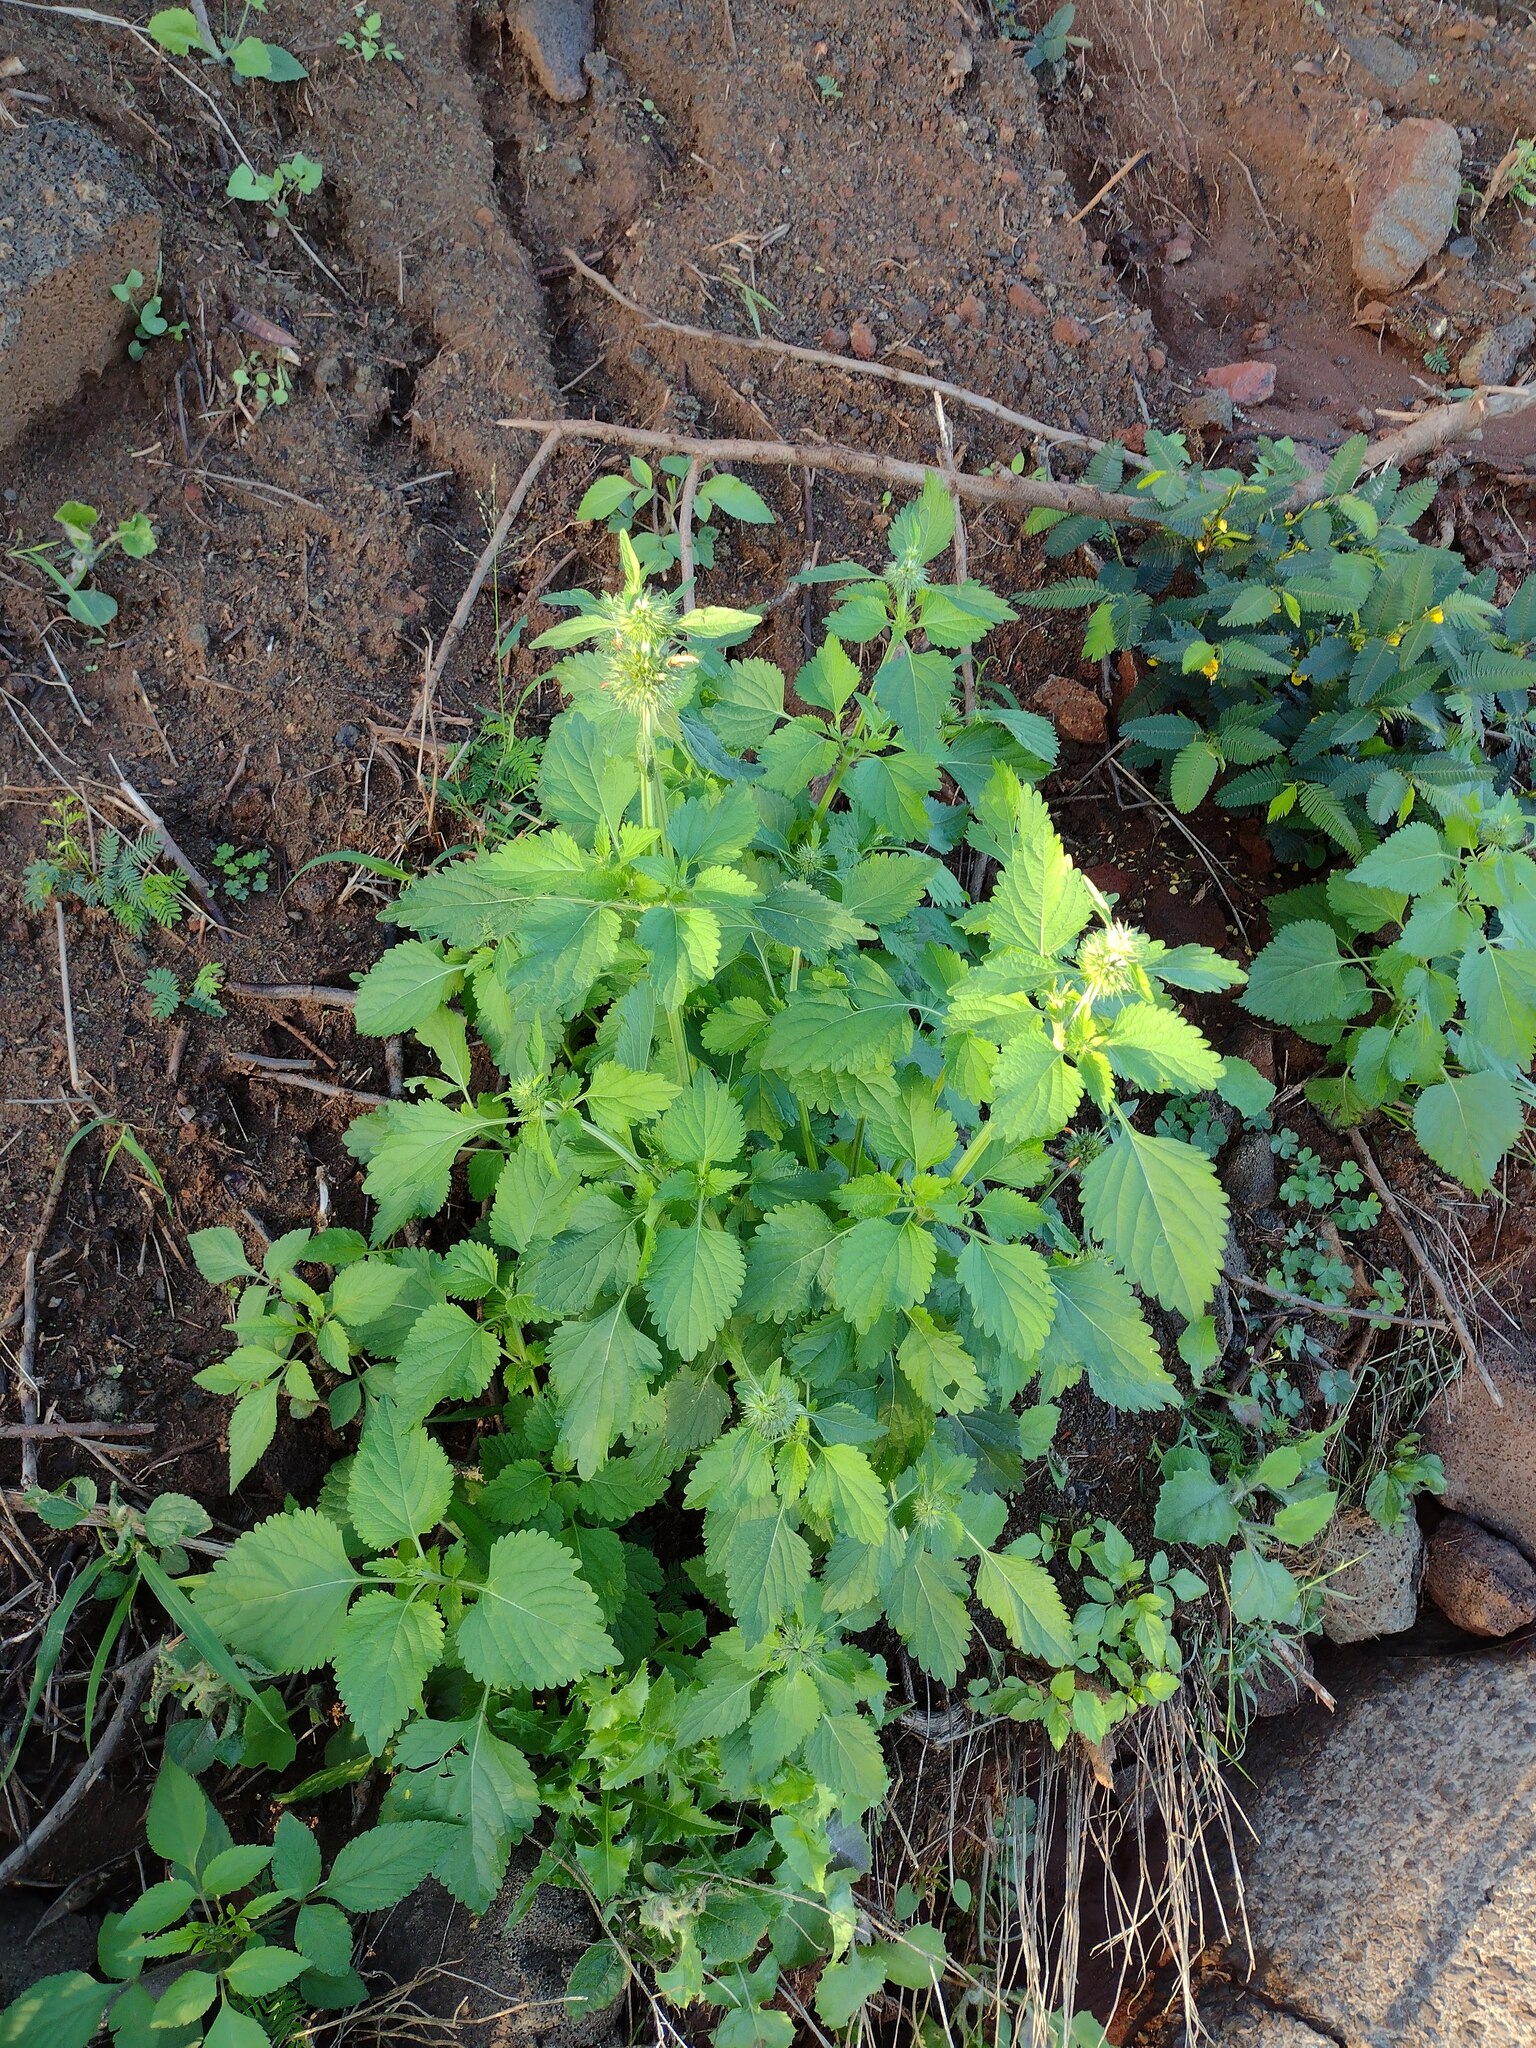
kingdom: Plantae
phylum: Tracheophyta
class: Magnoliopsida
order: Lamiales
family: Lamiaceae
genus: Leonotis
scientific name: Leonotis nepetifolia
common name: Christmas candlestick
